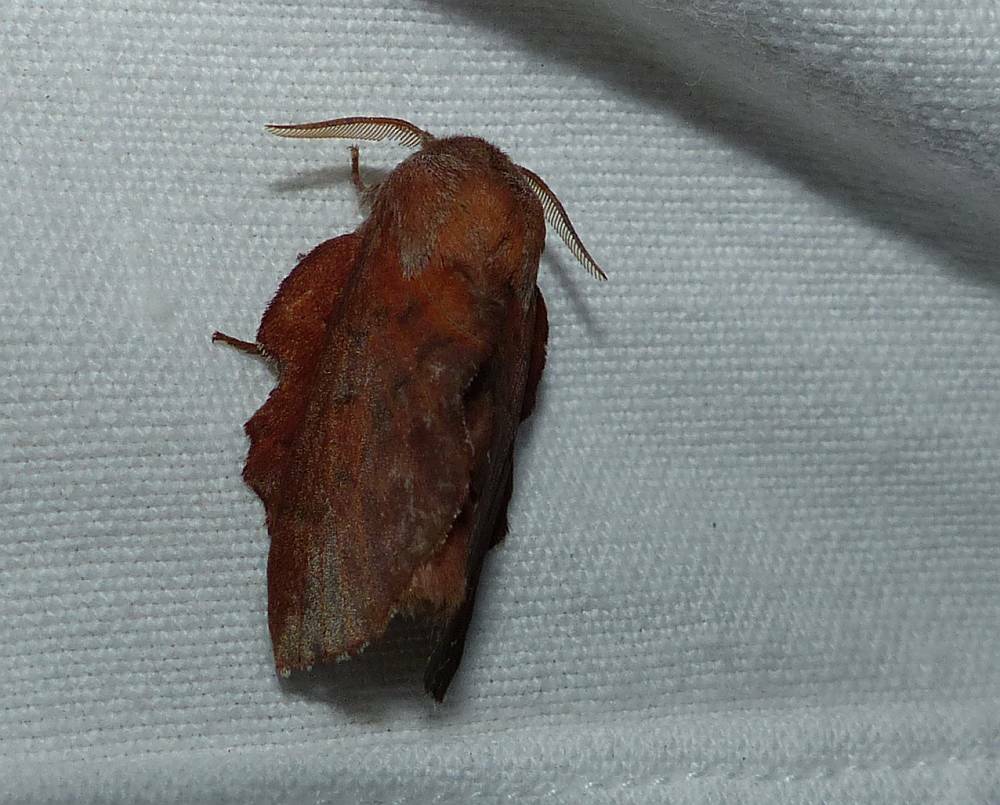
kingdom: Animalia
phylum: Arthropoda
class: Insecta
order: Lepidoptera
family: Lasiocampidae
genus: Phyllodesma
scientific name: Phyllodesma americana
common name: American lappet moth
